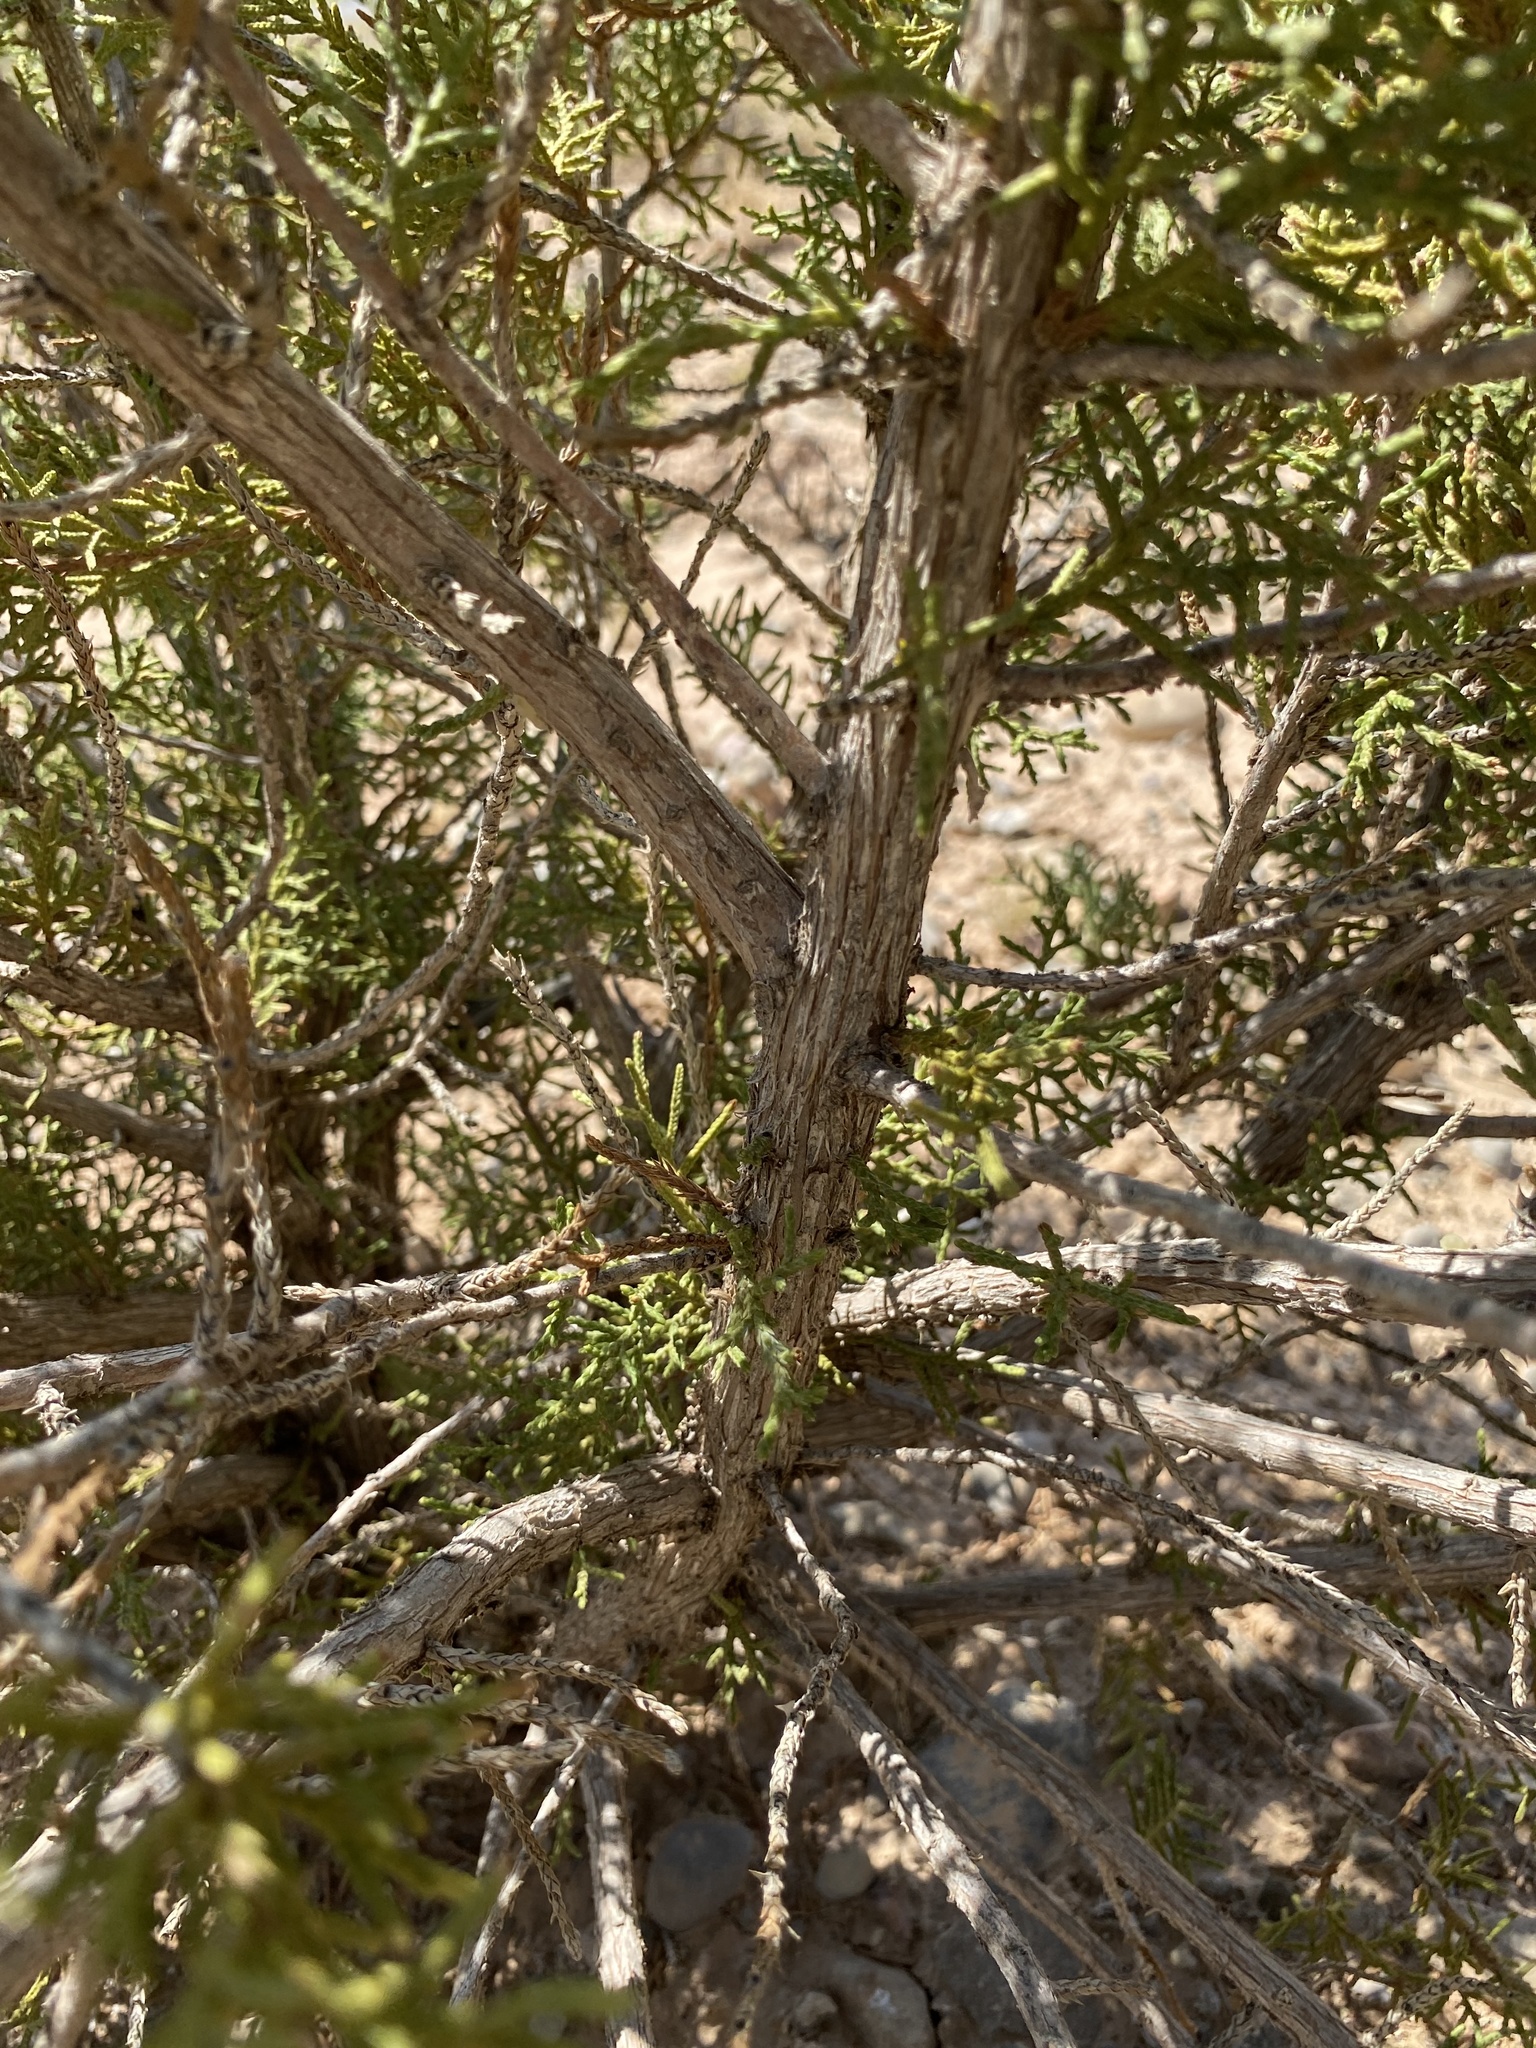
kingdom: Plantae
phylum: Tracheophyta
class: Pinopsida
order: Pinales
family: Cupressaceae
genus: Juniperus
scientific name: Juniperus monosperma
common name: One-seed juniper
